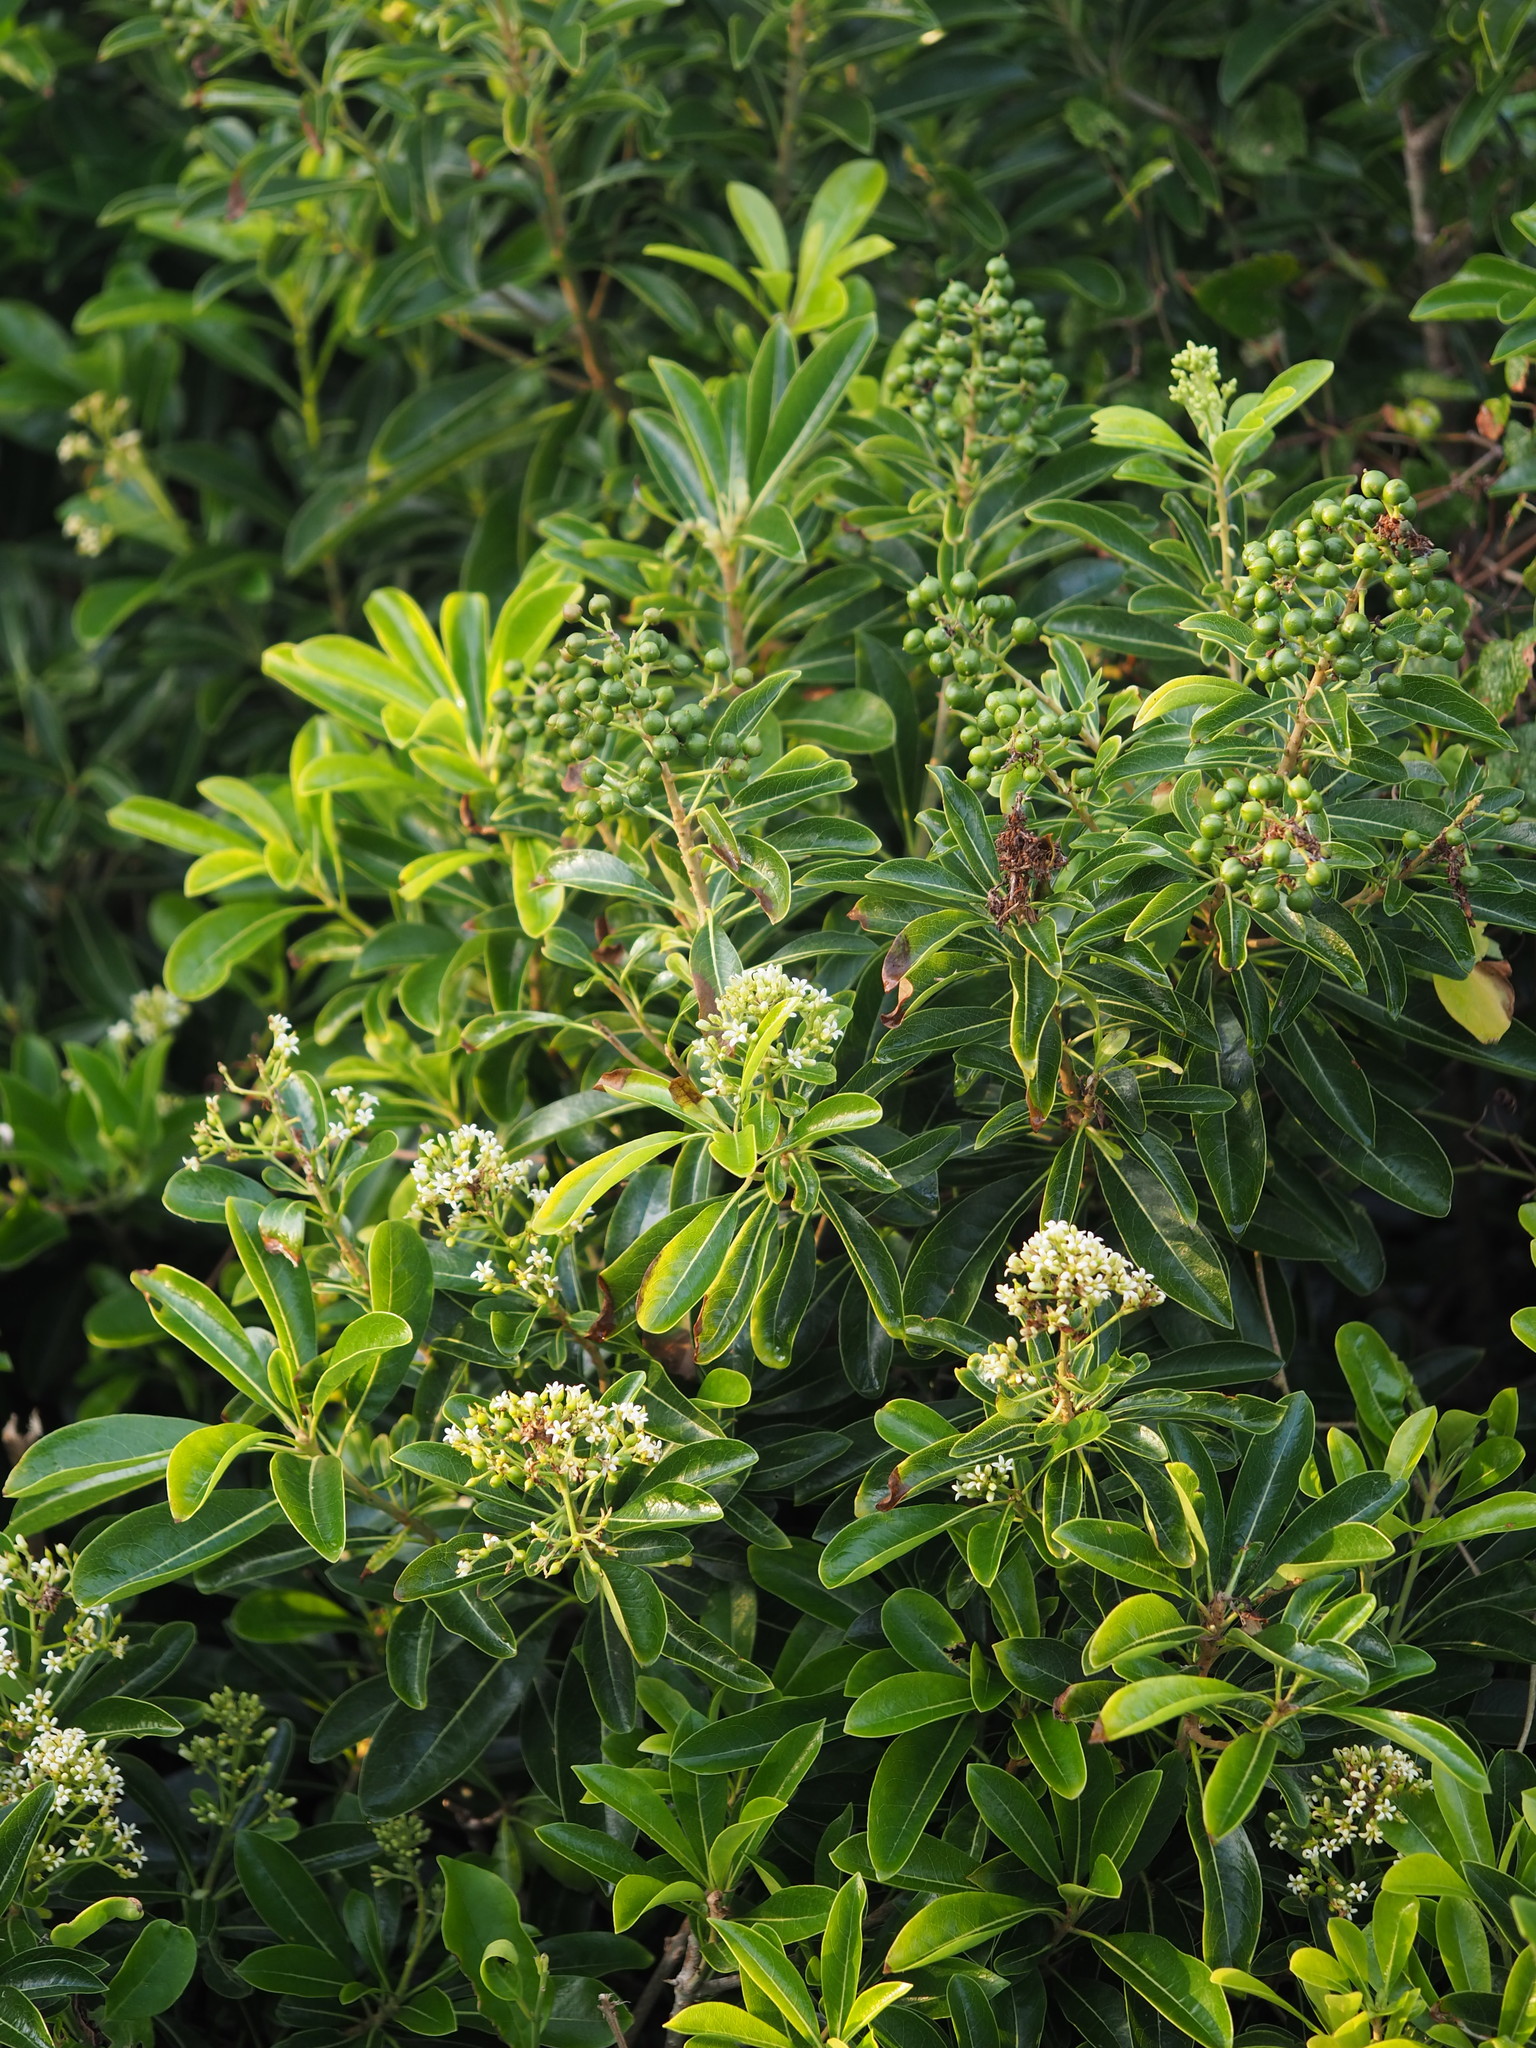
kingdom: Plantae
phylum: Tracheophyta
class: Magnoliopsida
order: Apiales
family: Pittosporaceae
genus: Pittosporum
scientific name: Pittosporum pentandrum
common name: Taiwanese cheesewood
